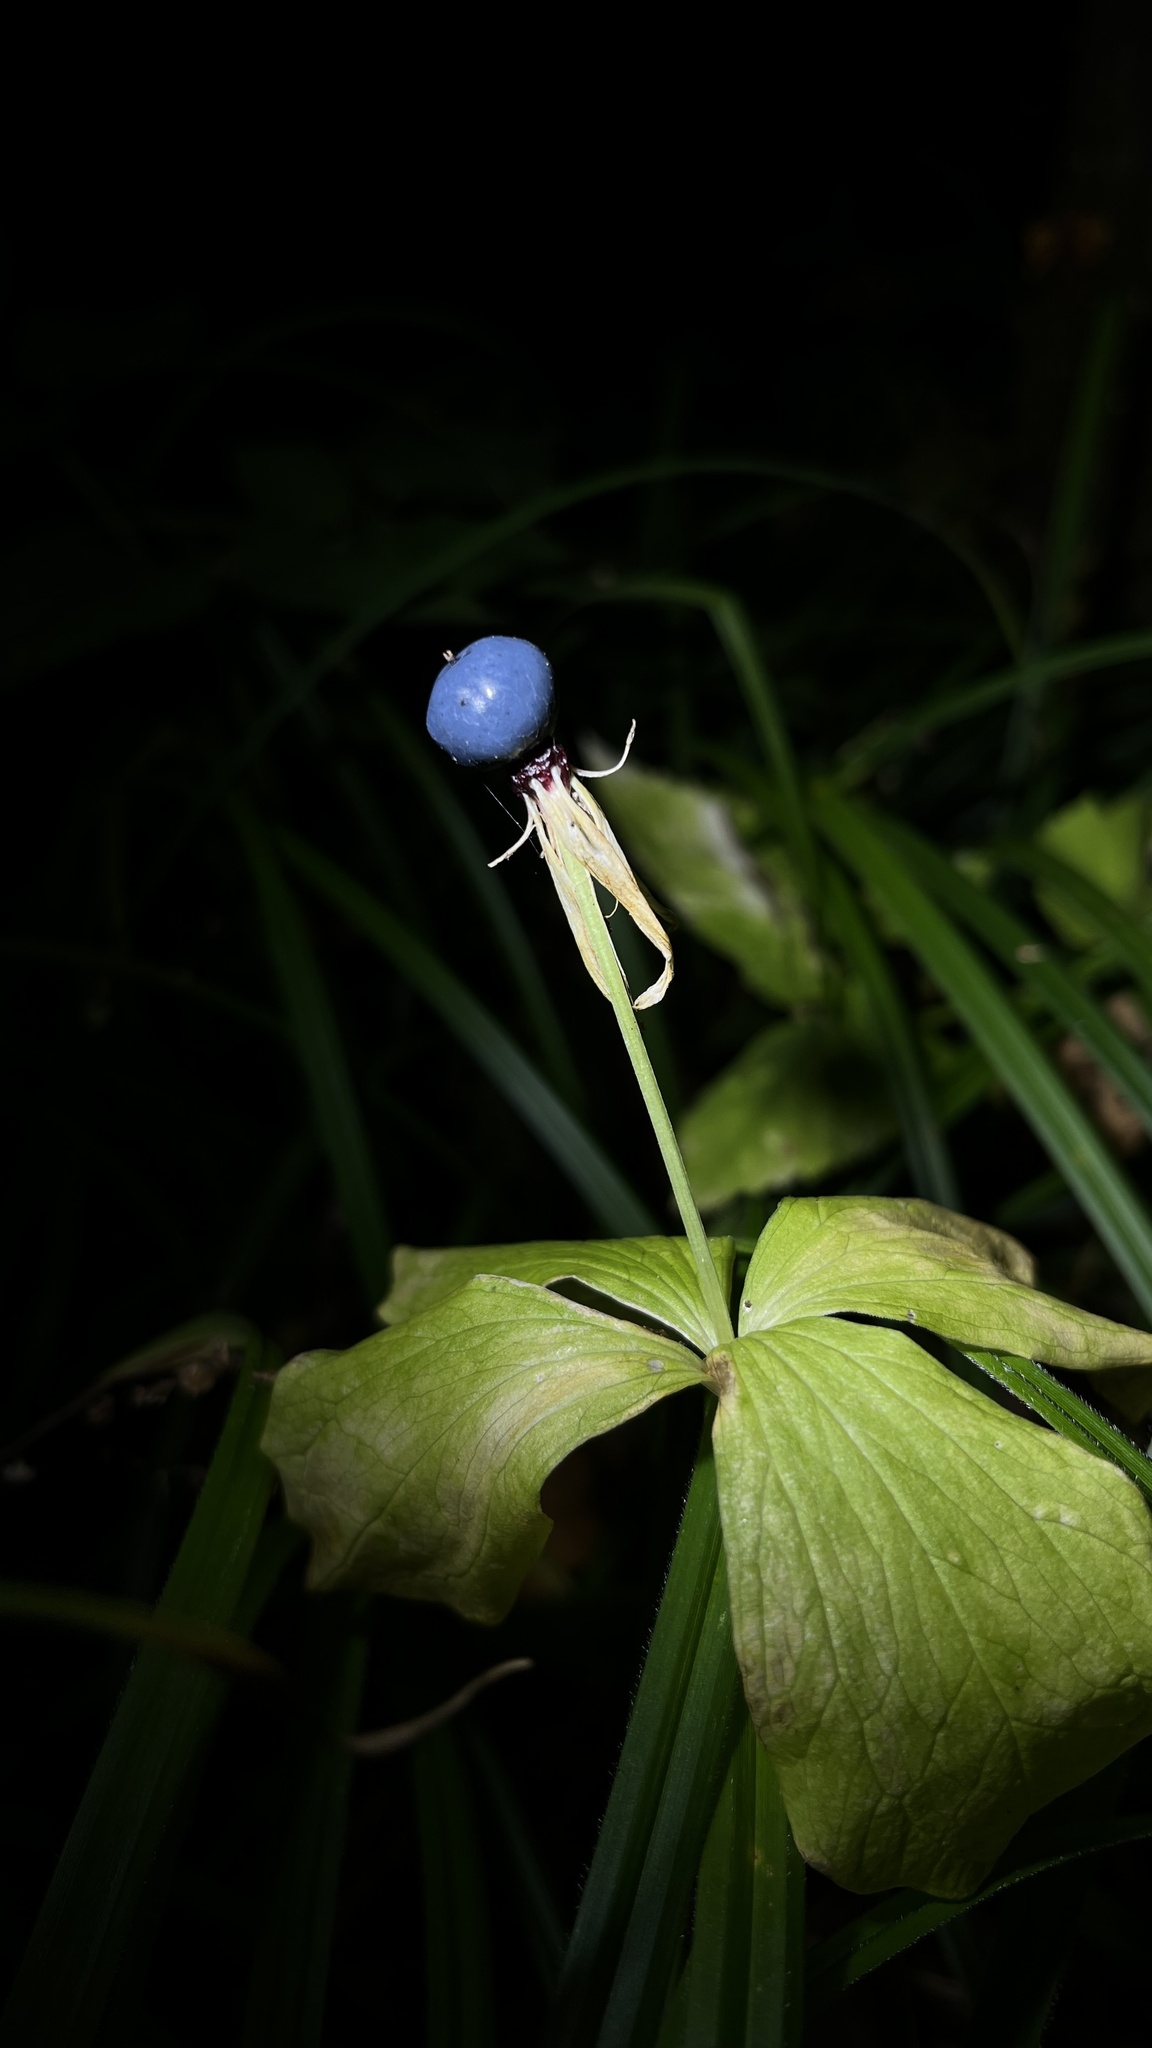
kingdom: Plantae
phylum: Tracheophyta
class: Liliopsida
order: Liliales
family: Melanthiaceae
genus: Paris
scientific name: Paris quadrifolia
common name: Herb-paris
